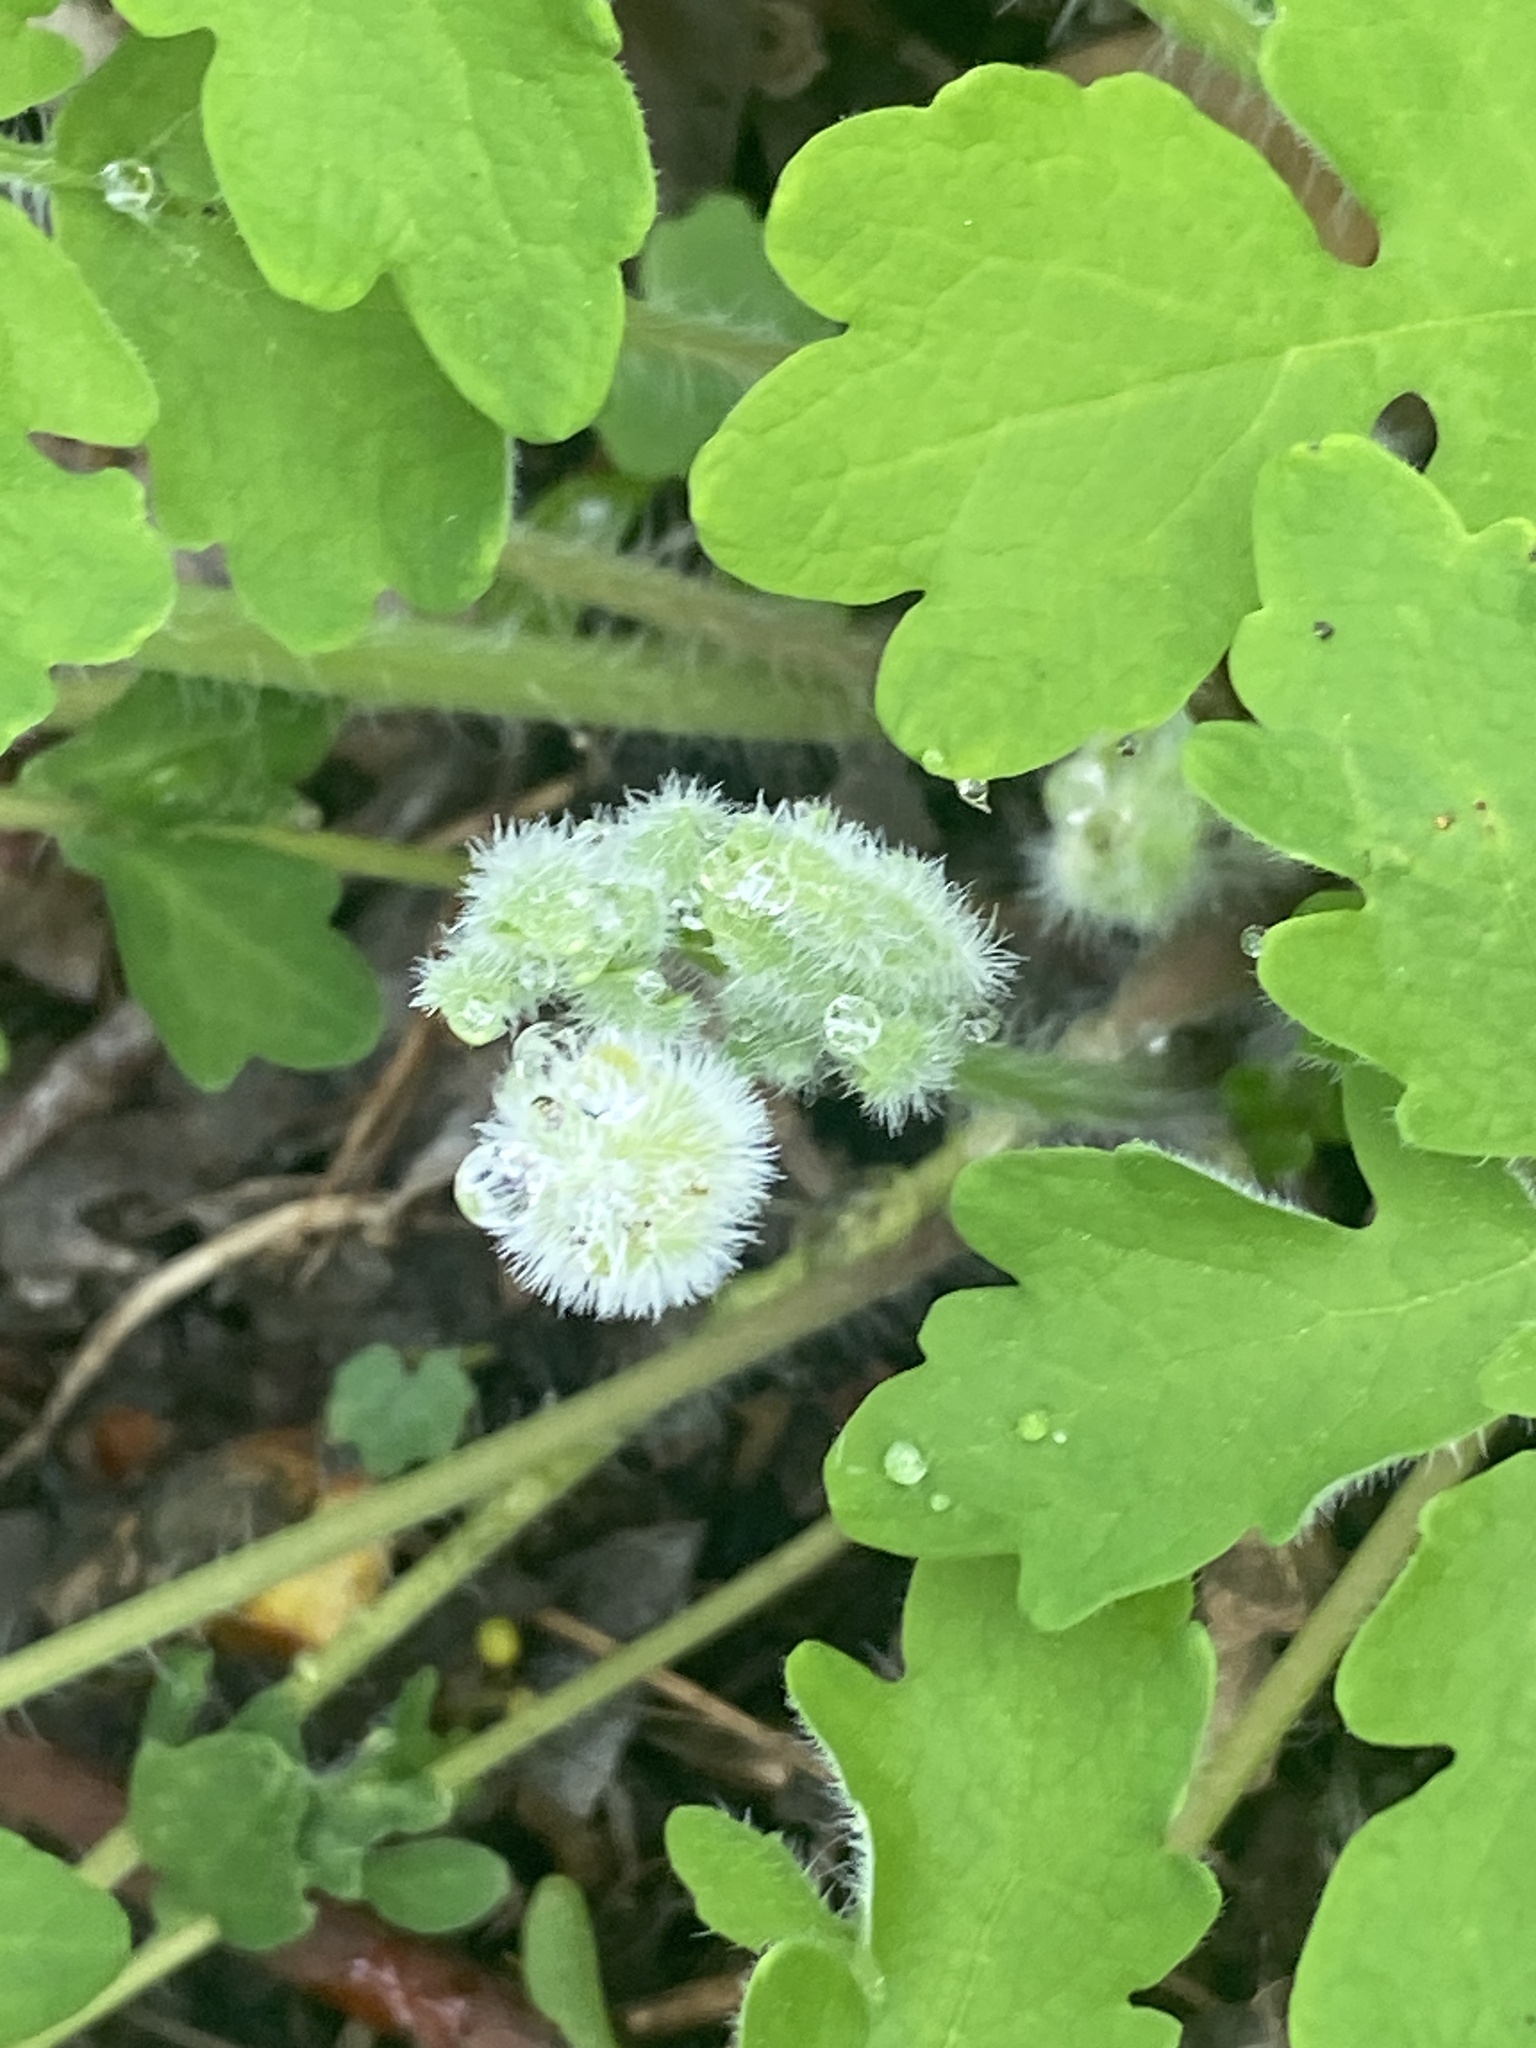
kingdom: Plantae
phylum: Tracheophyta
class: Magnoliopsida
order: Ranunculales
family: Papaveraceae
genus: Stylophorum
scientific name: Stylophorum diphyllum
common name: Celandine poppy
